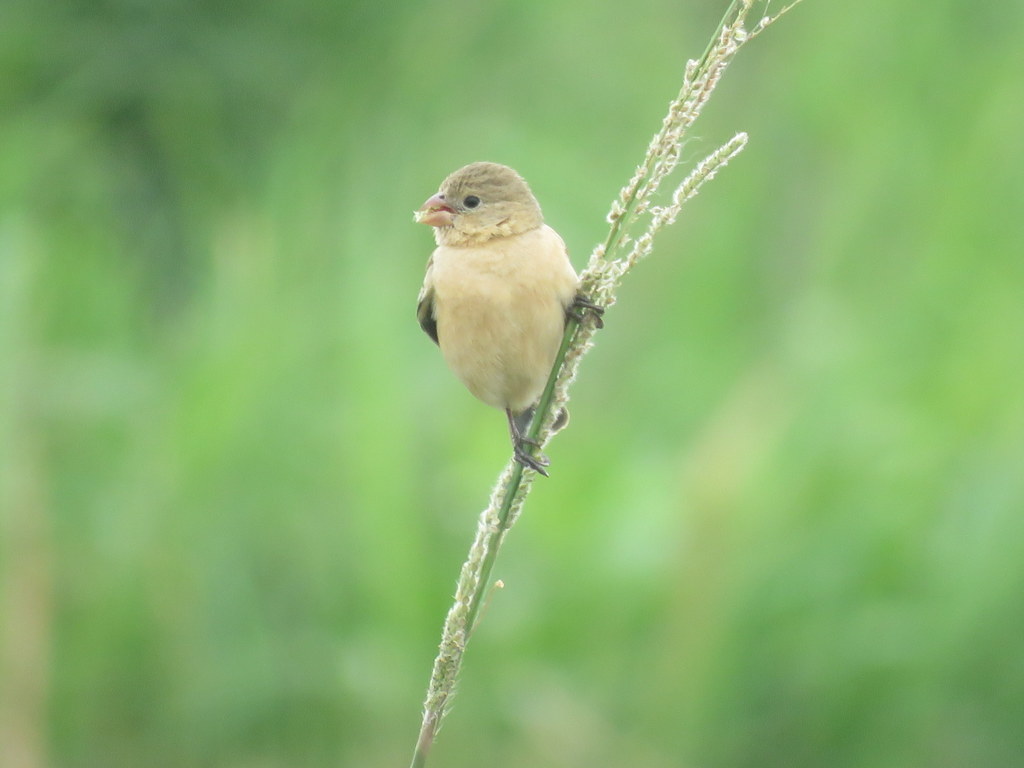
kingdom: Animalia
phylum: Chordata
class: Aves
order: Passeriformes
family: Thraupidae
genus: Sporophila
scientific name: Sporophila hypoxantha
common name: Tawny-bellied seedeater
